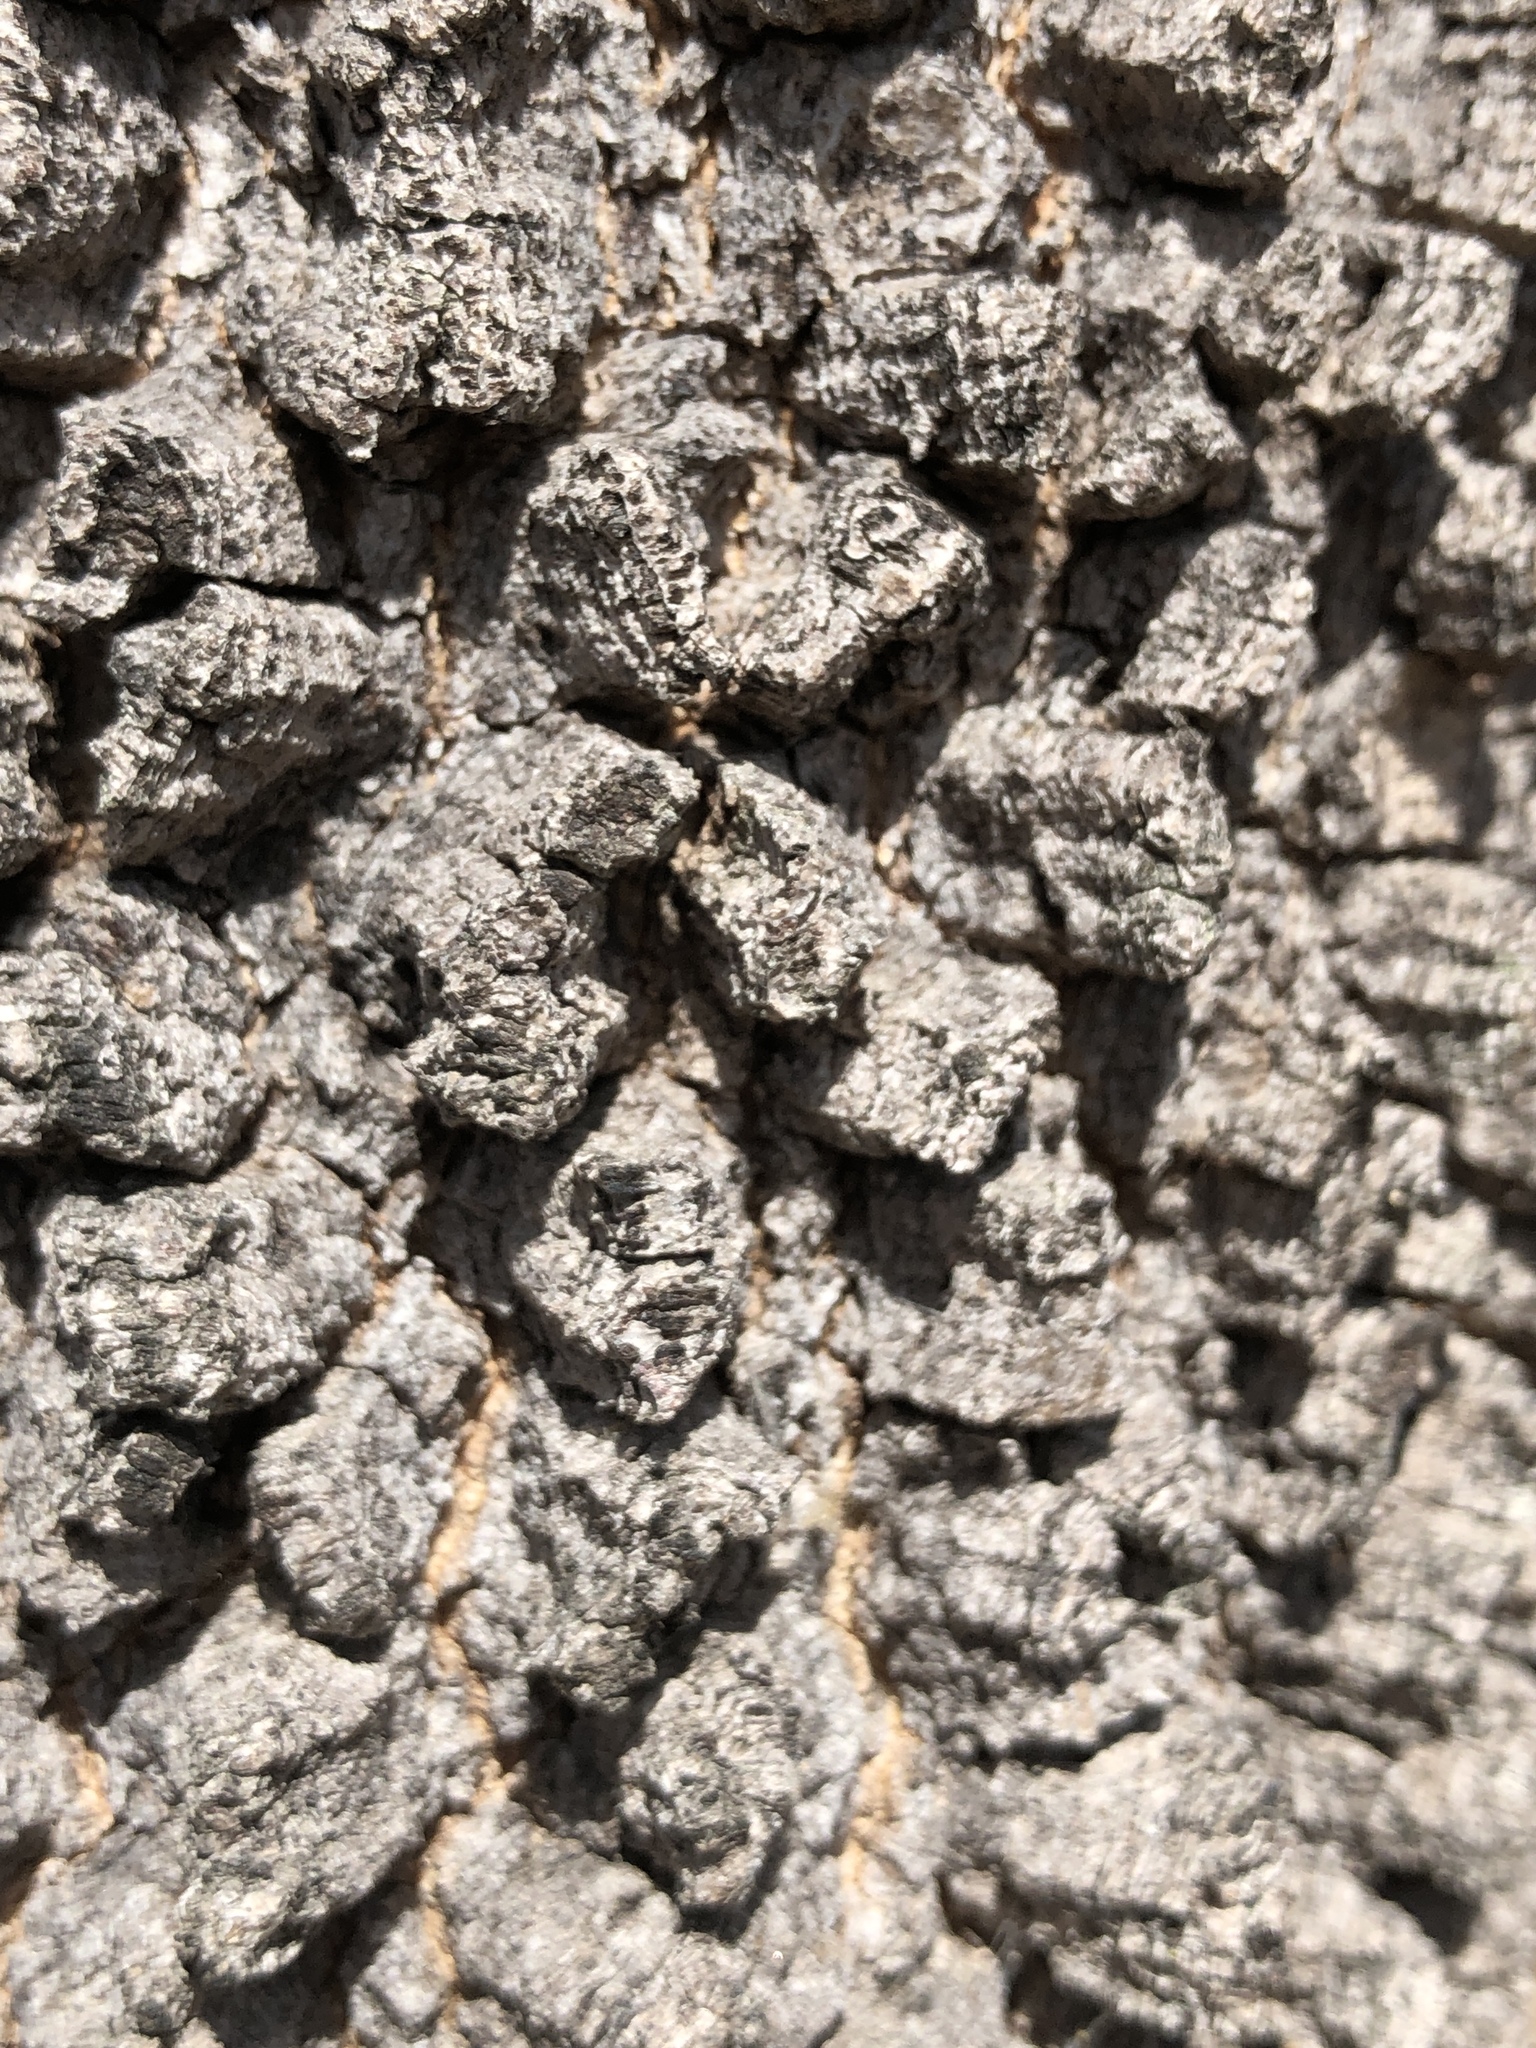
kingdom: Plantae
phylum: Tracheophyta
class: Magnoliopsida
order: Sapindales
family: Sapindaceae
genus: Atalaya
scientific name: Atalaya hemiglauca
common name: Western whitewood
